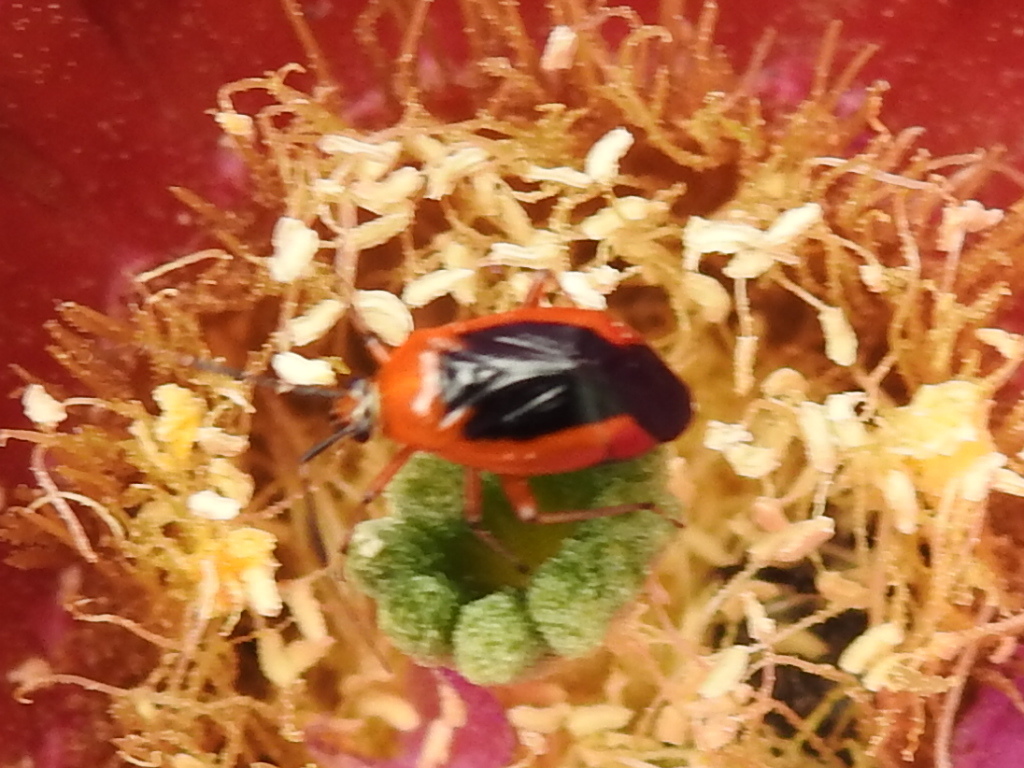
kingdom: Animalia
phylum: Arthropoda
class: Insecta
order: Hemiptera
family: Miridae
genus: Metriorrhynchomiris
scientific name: Metriorrhynchomiris dislocatus
